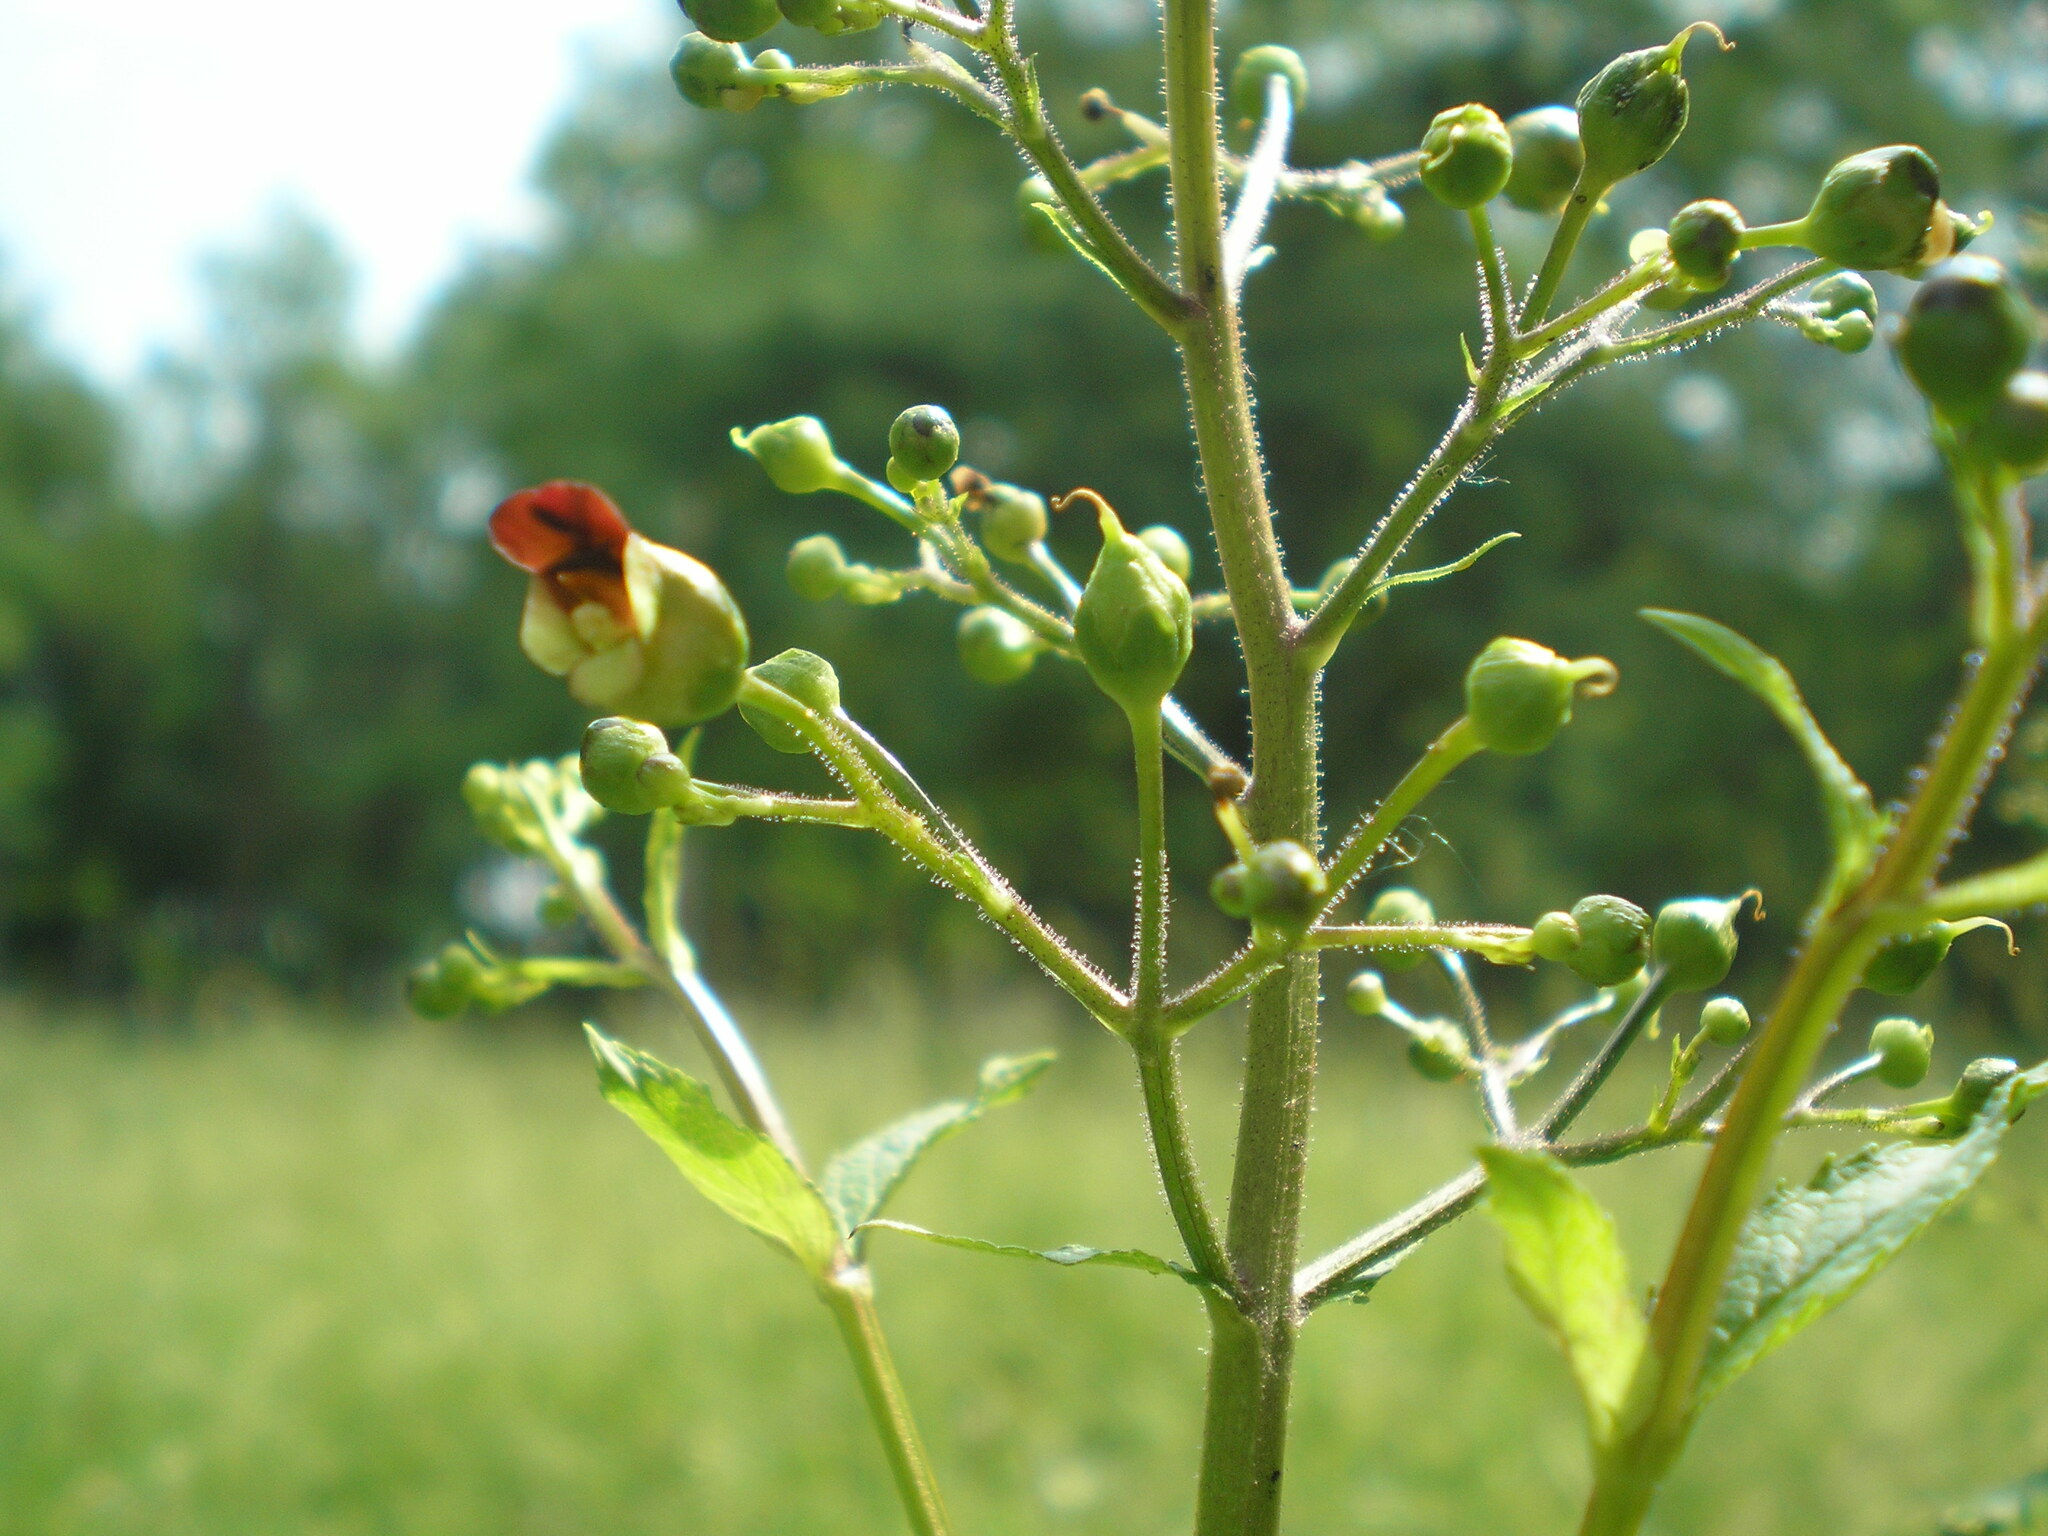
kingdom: Plantae
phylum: Tracheophyta
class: Magnoliopsida
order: Lamiales
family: Scrophulariaceae
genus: Scrophularia
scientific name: Scrophularia nodosa
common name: Common figwort
